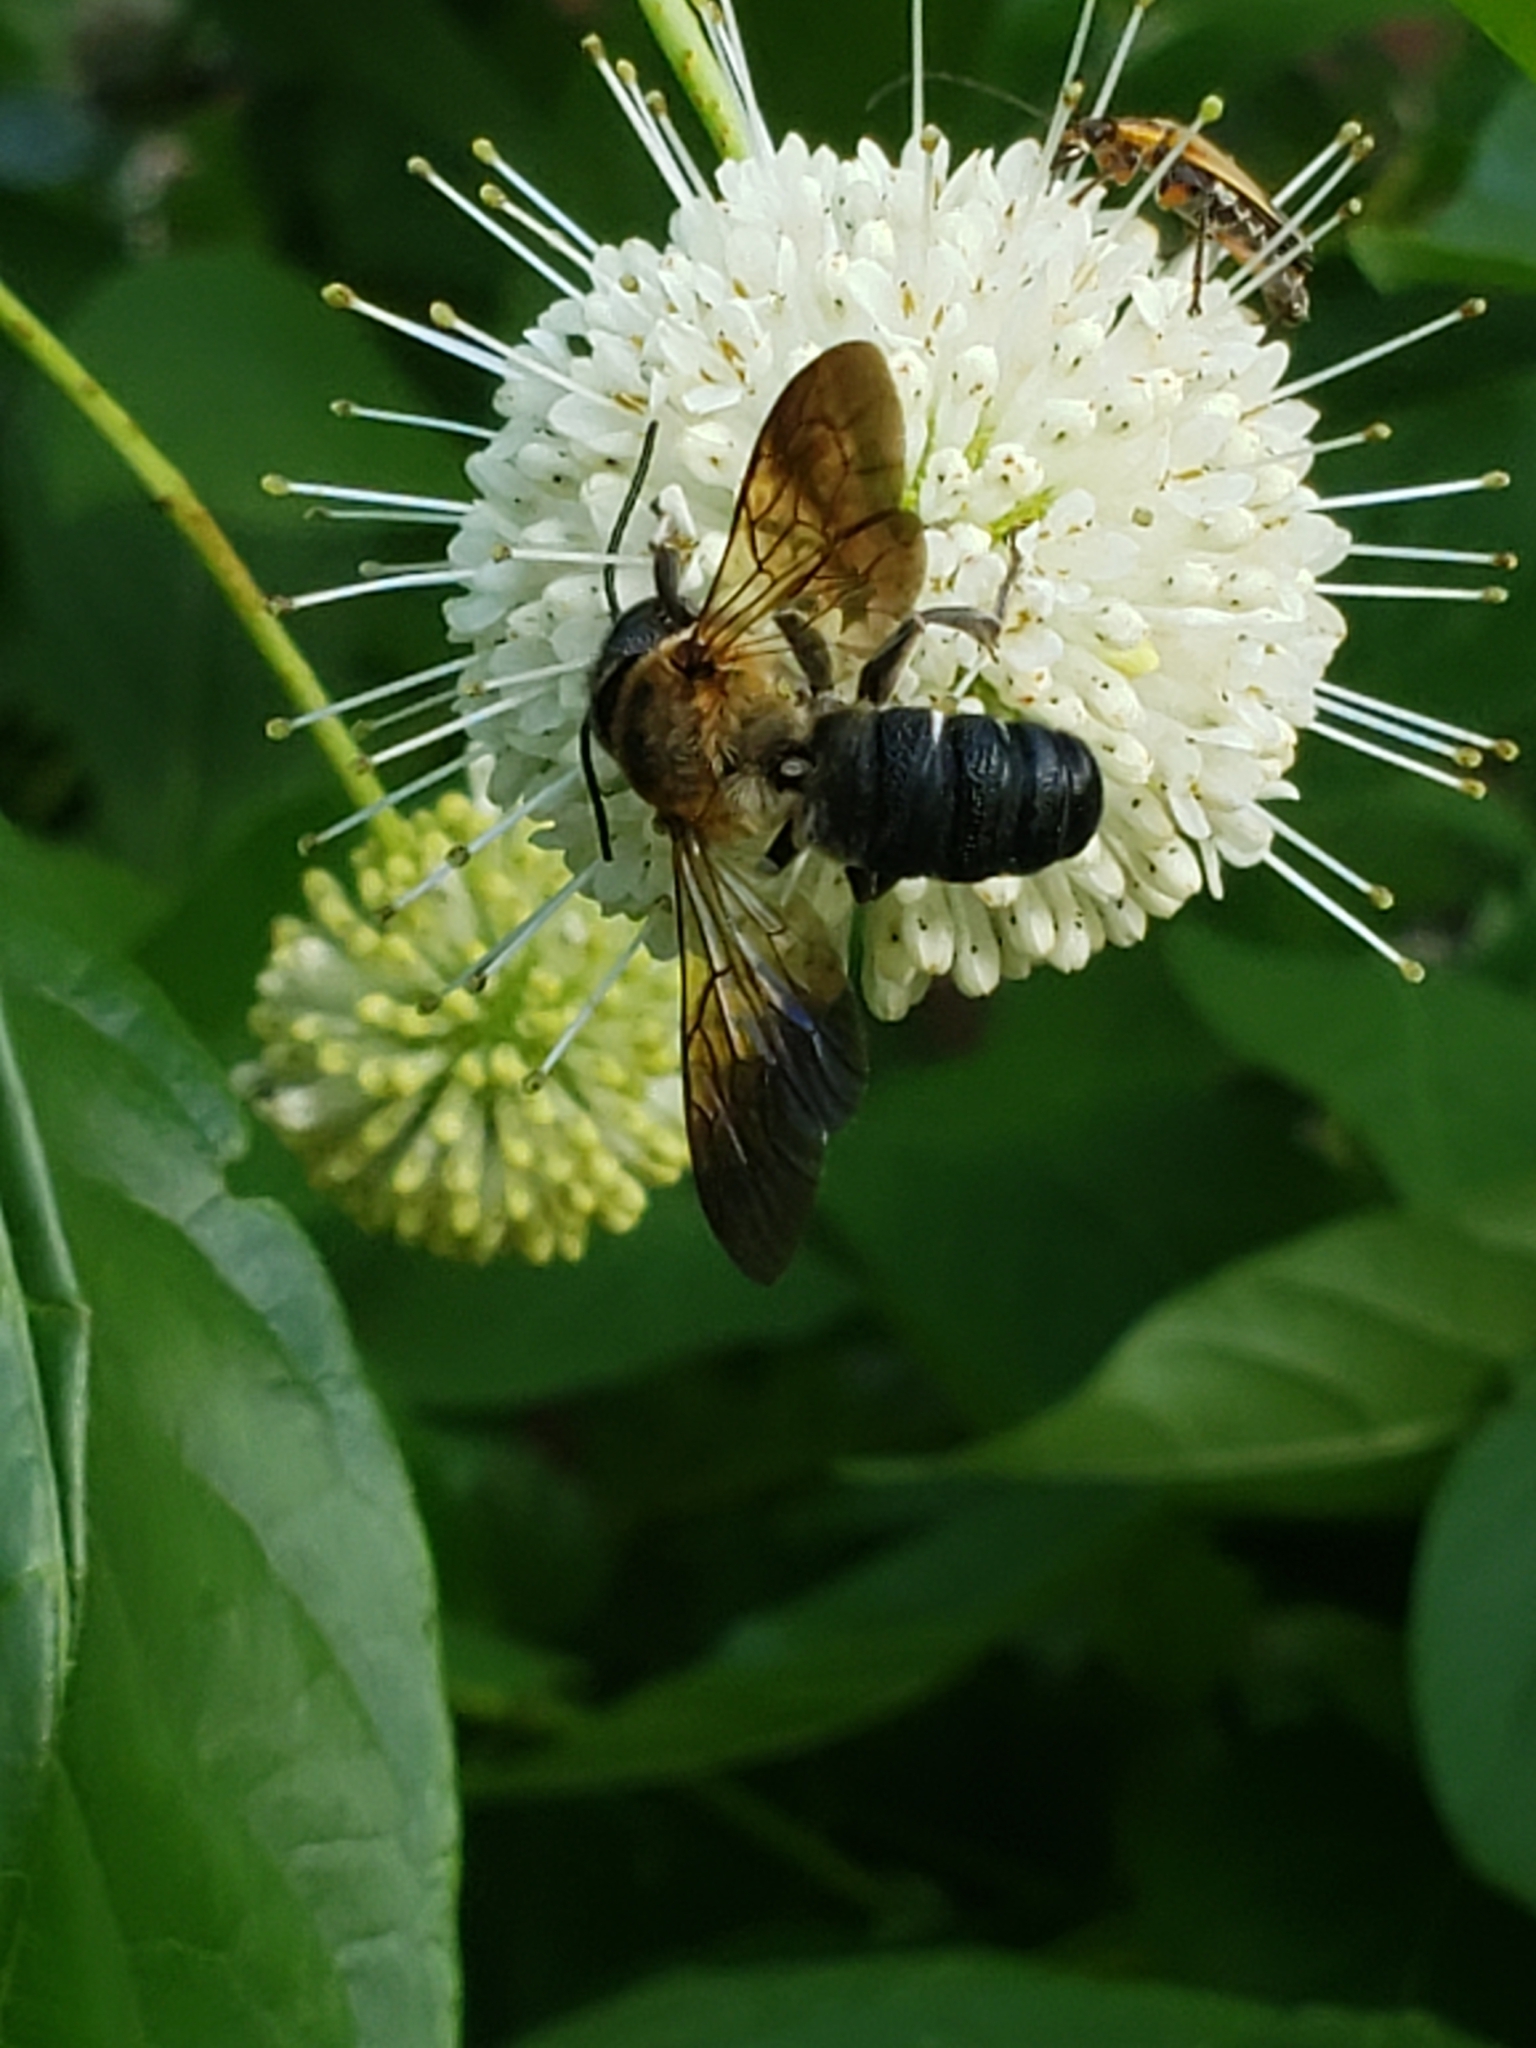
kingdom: Animalia
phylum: Arthropoda
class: Insecta
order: Hymenoptera
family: Megachilidae
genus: Megachile
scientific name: Megachile sculpturalis
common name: Sculptured resin bee
